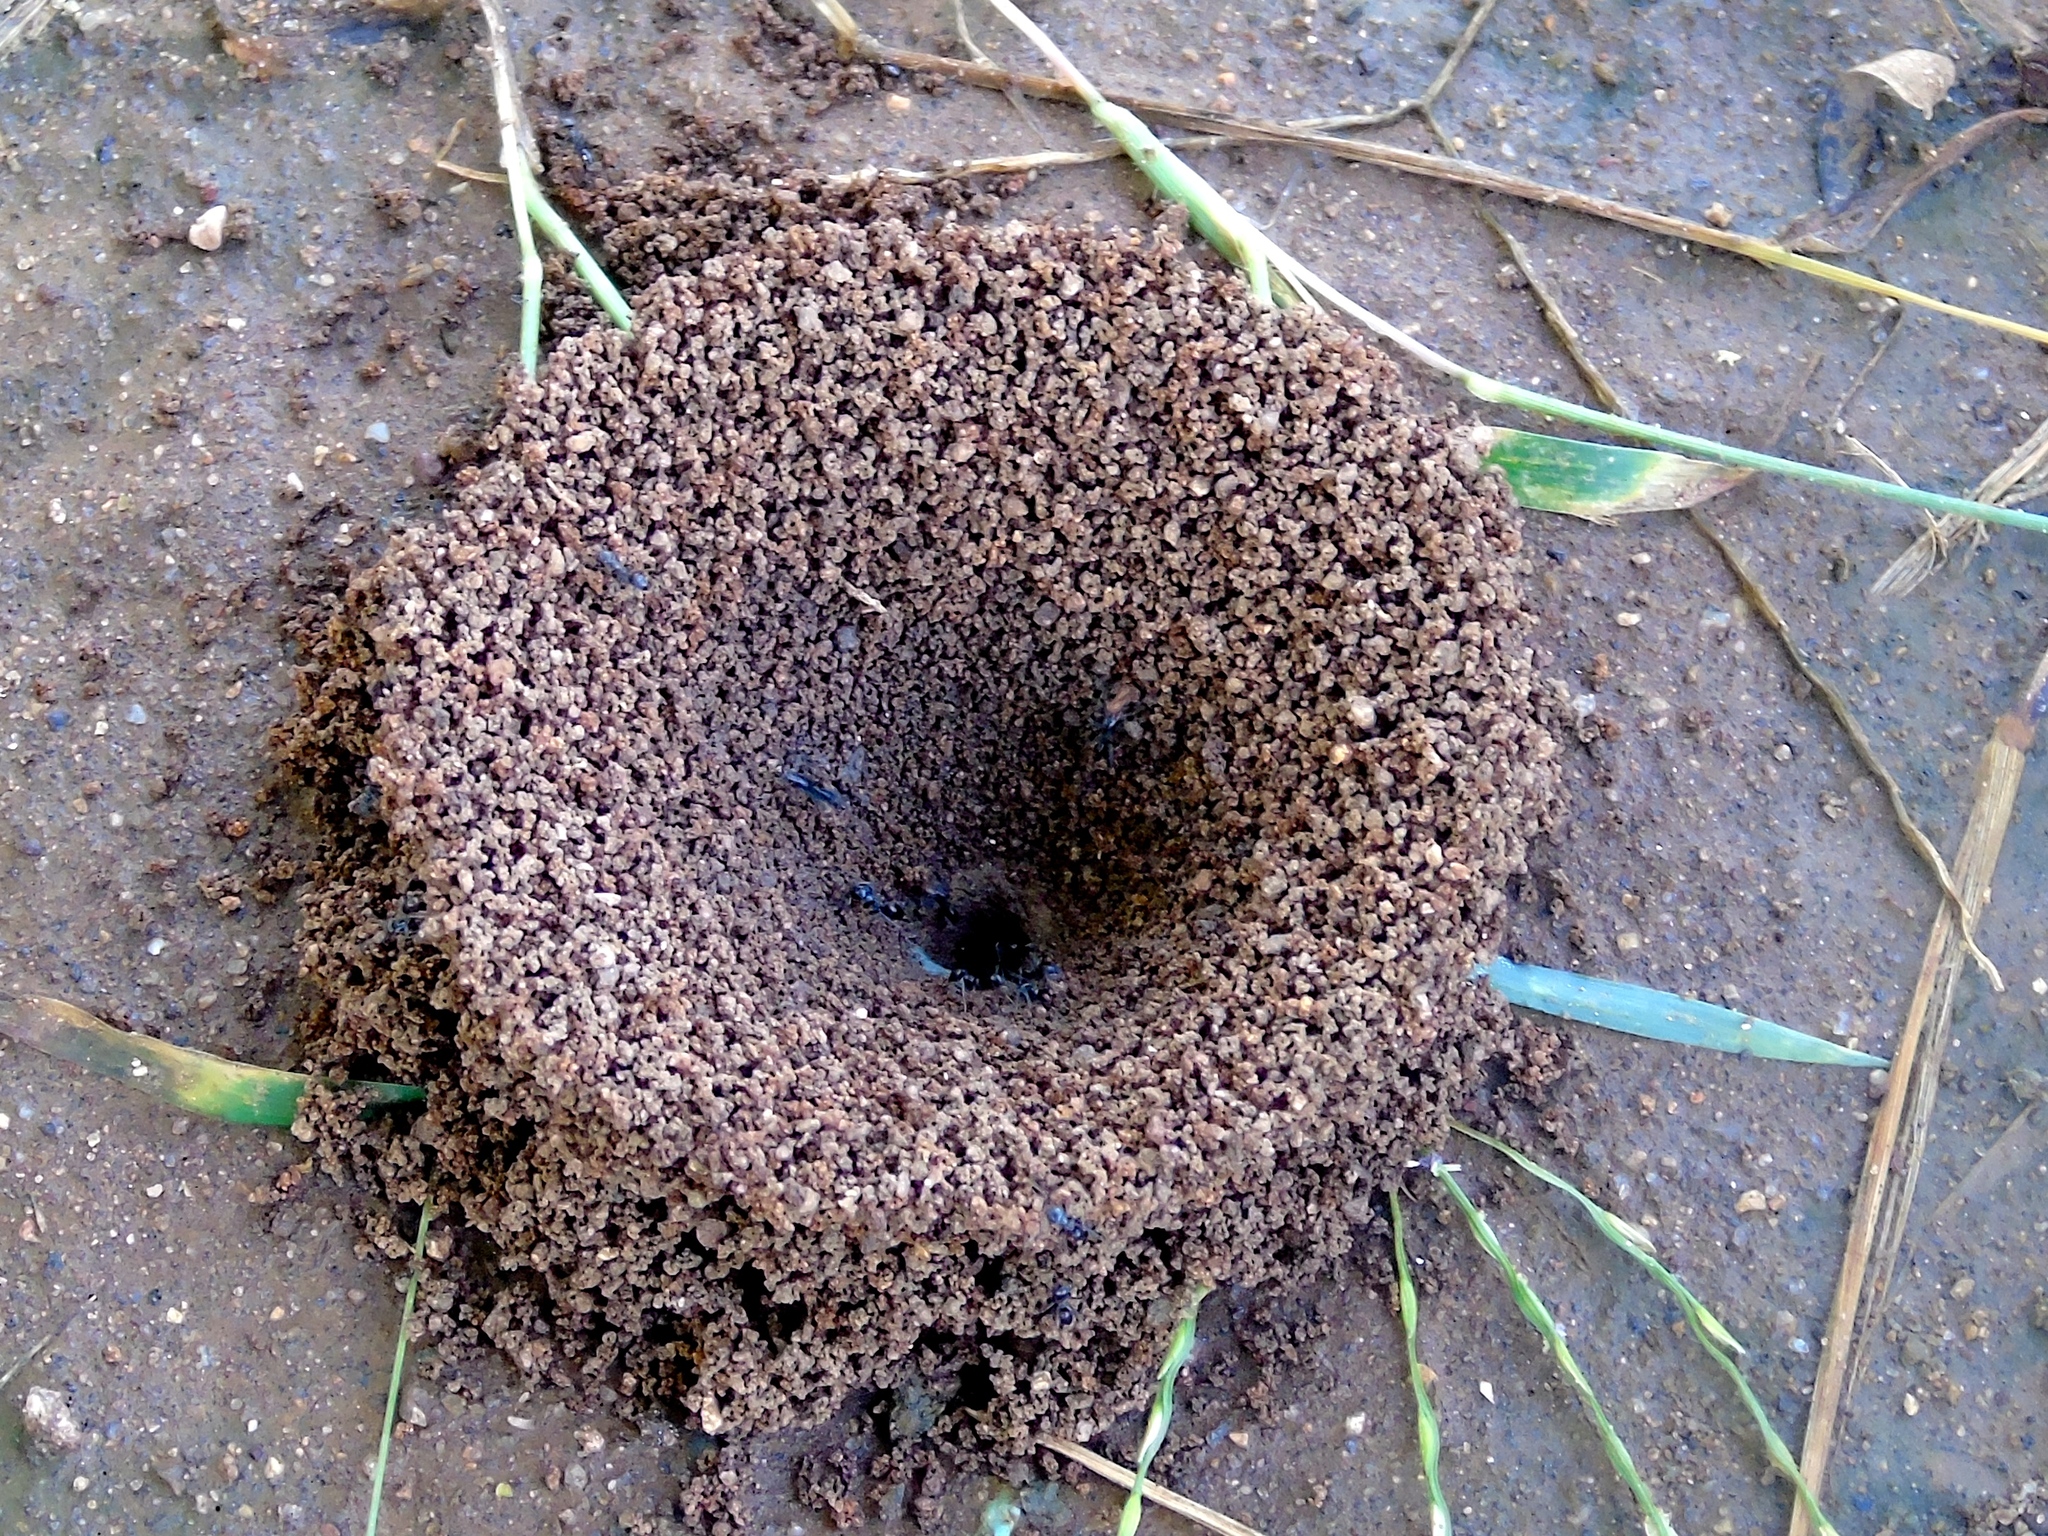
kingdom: Animalia
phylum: Arthropoda
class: Insecta
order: Hymenoptera
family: Formicidae
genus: Dorymyrmex
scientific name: Dorymyrmex
